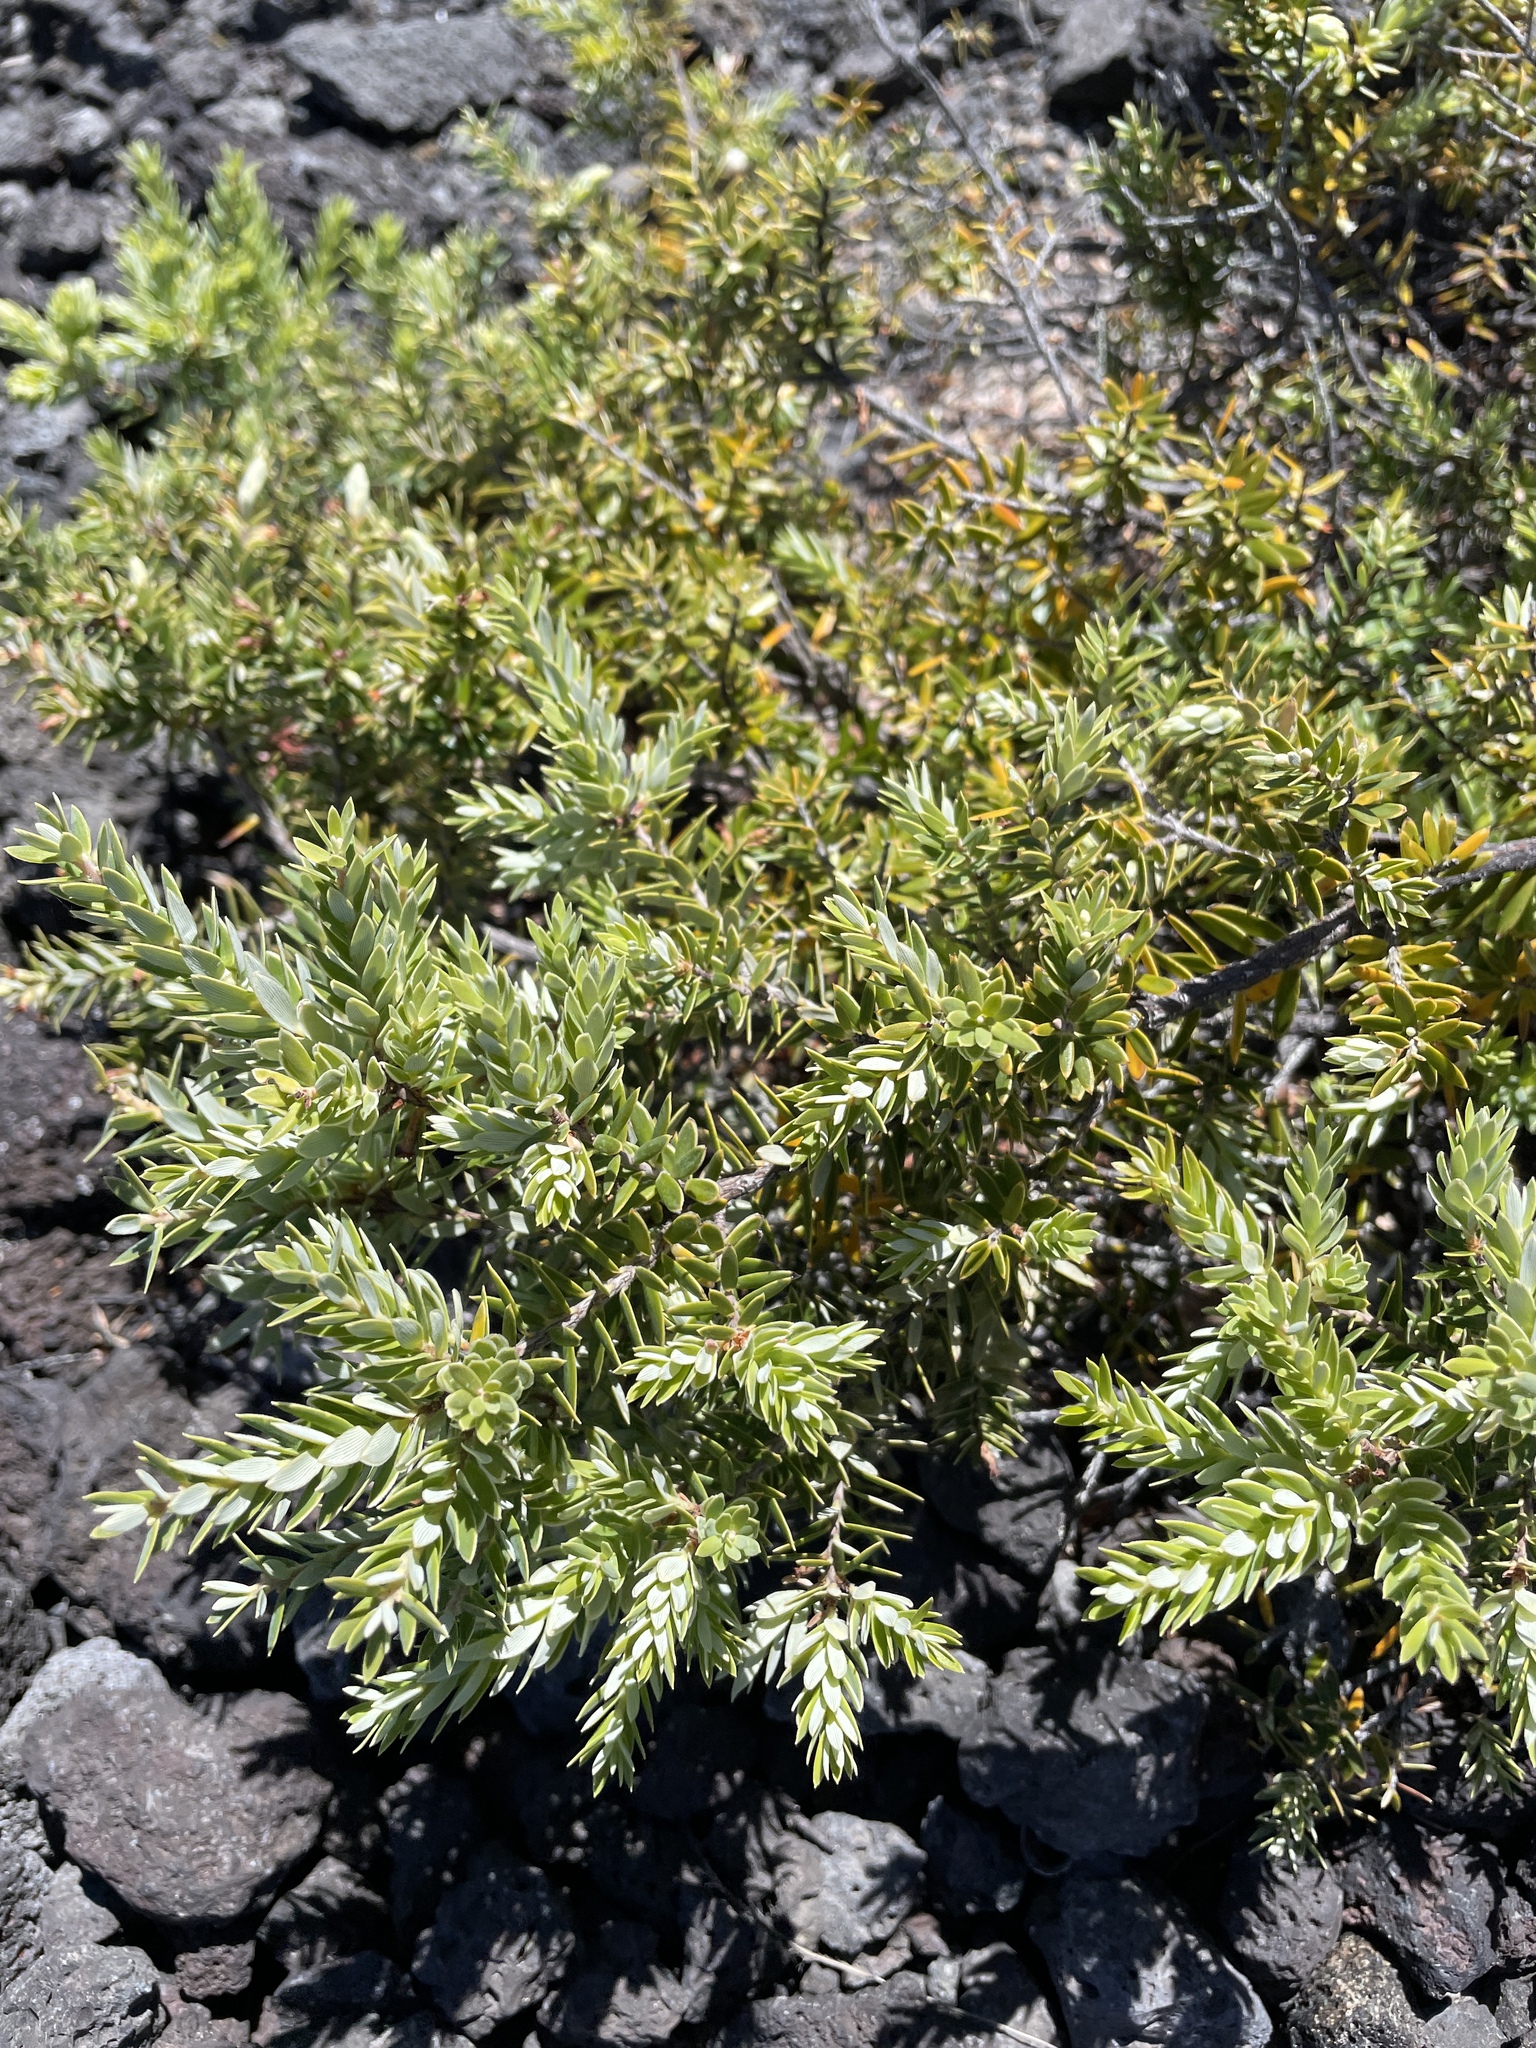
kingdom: Plantae
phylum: Tracheophyta
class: Magnoliopsida
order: Ericales
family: Ericaceae
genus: Leptecophylla
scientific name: Leptecophylla tameiameiae
